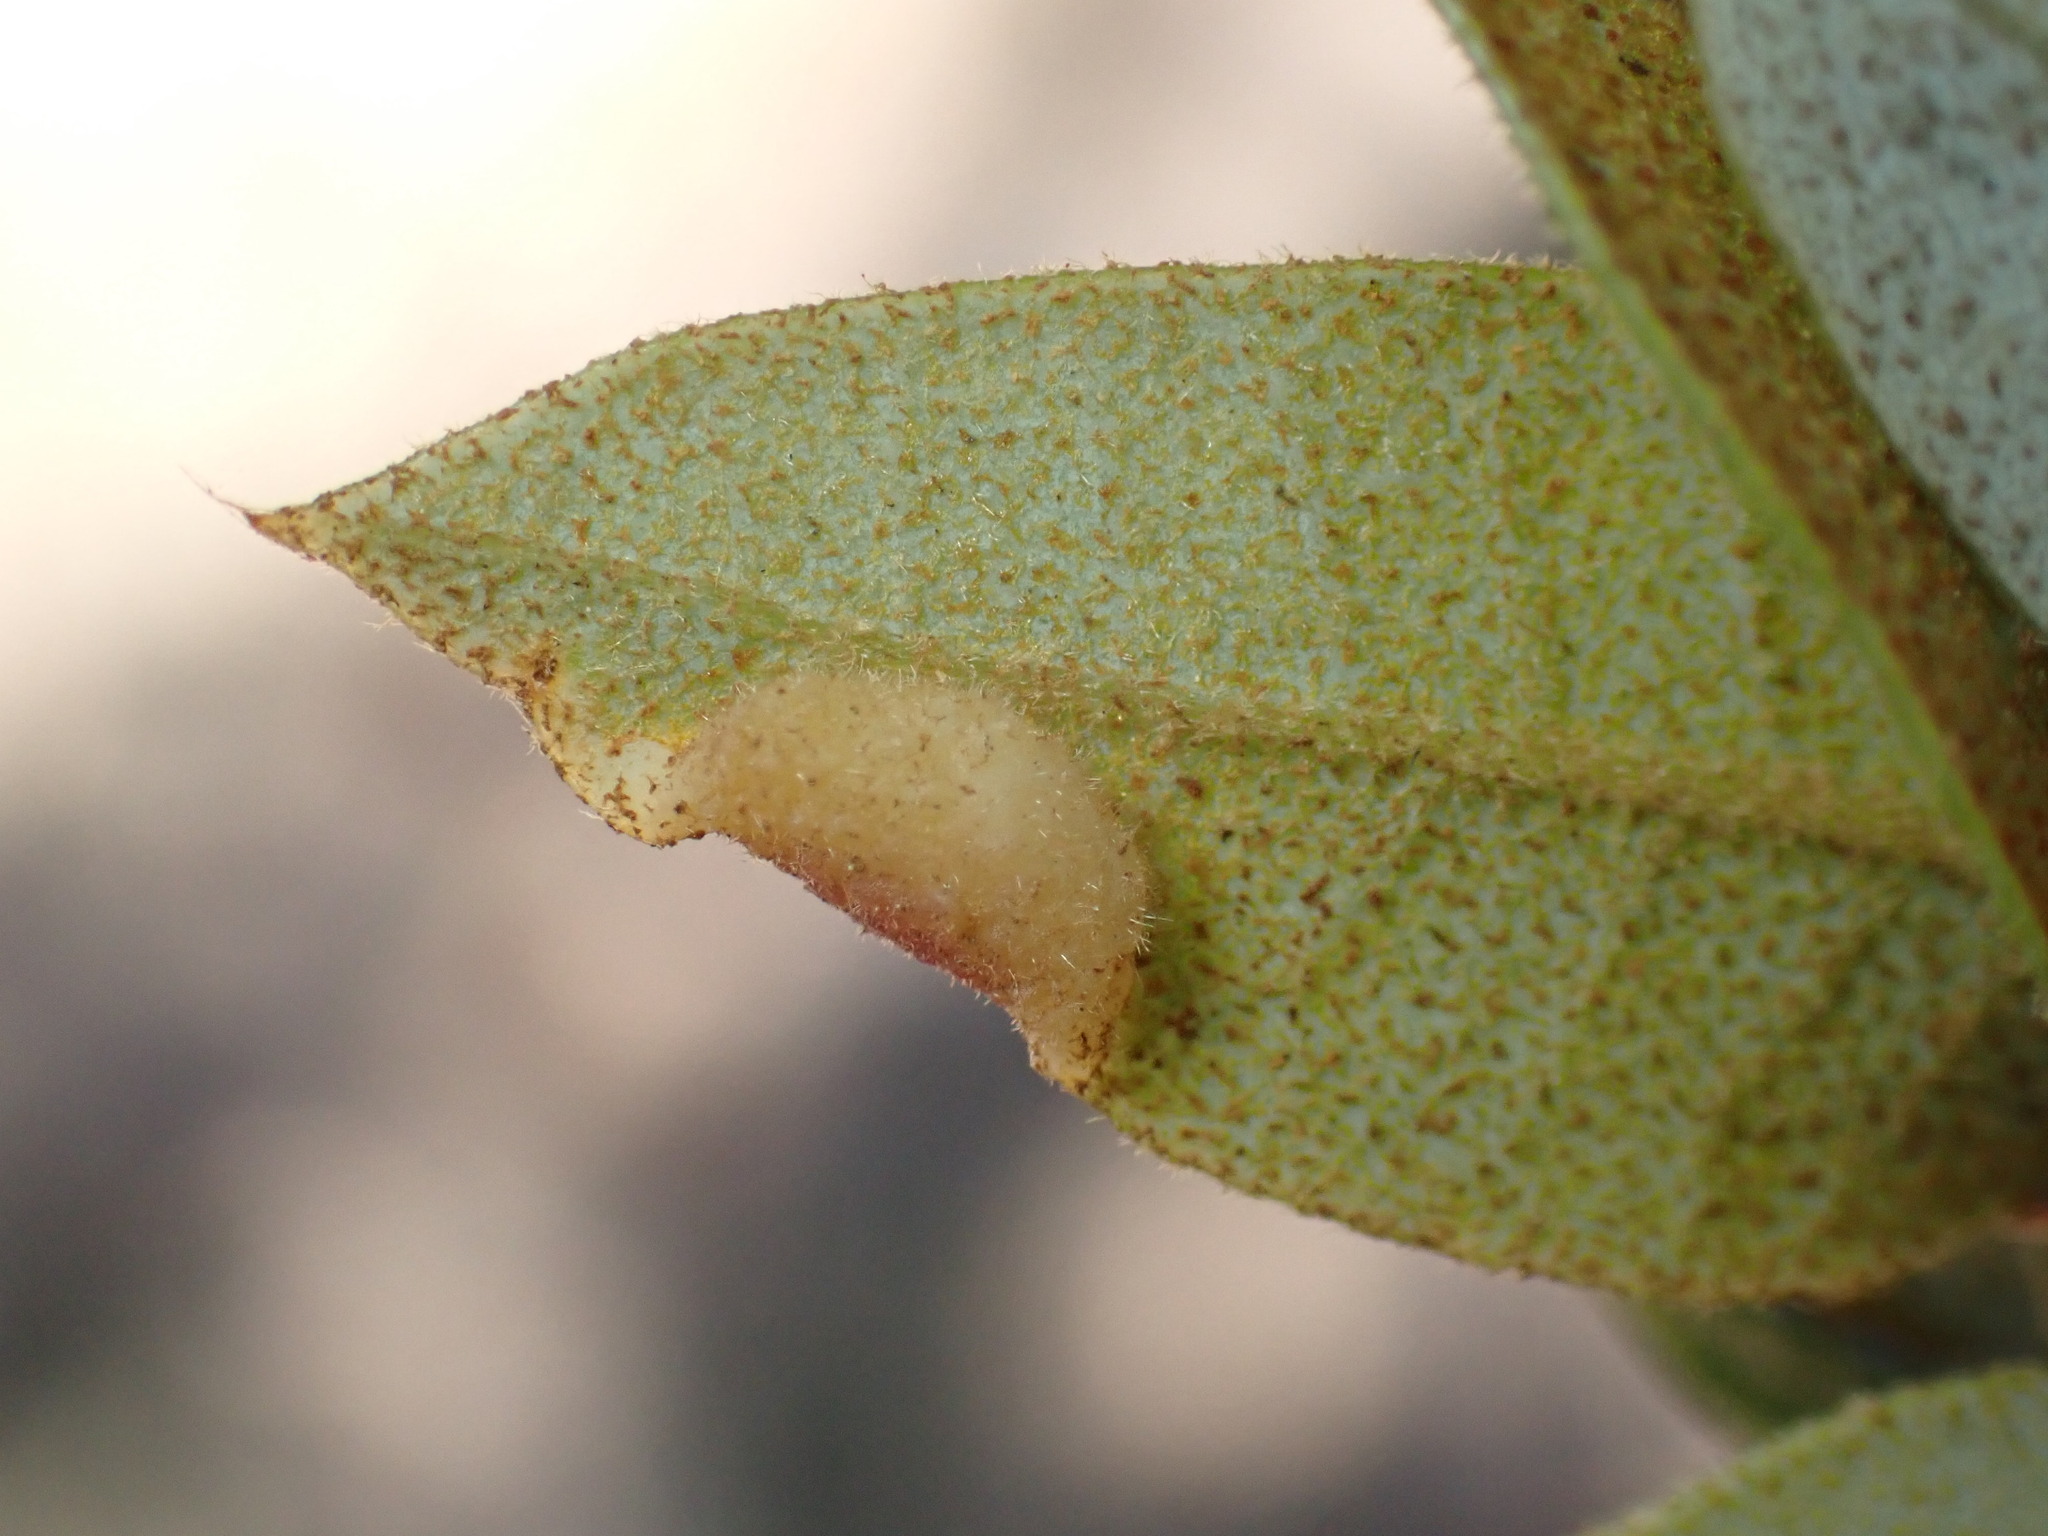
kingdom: Animalia
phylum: Arthropoda
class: Insecta
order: Diptera
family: Cecidomyiidae
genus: Dasineura
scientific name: Dasineura silvestrii
